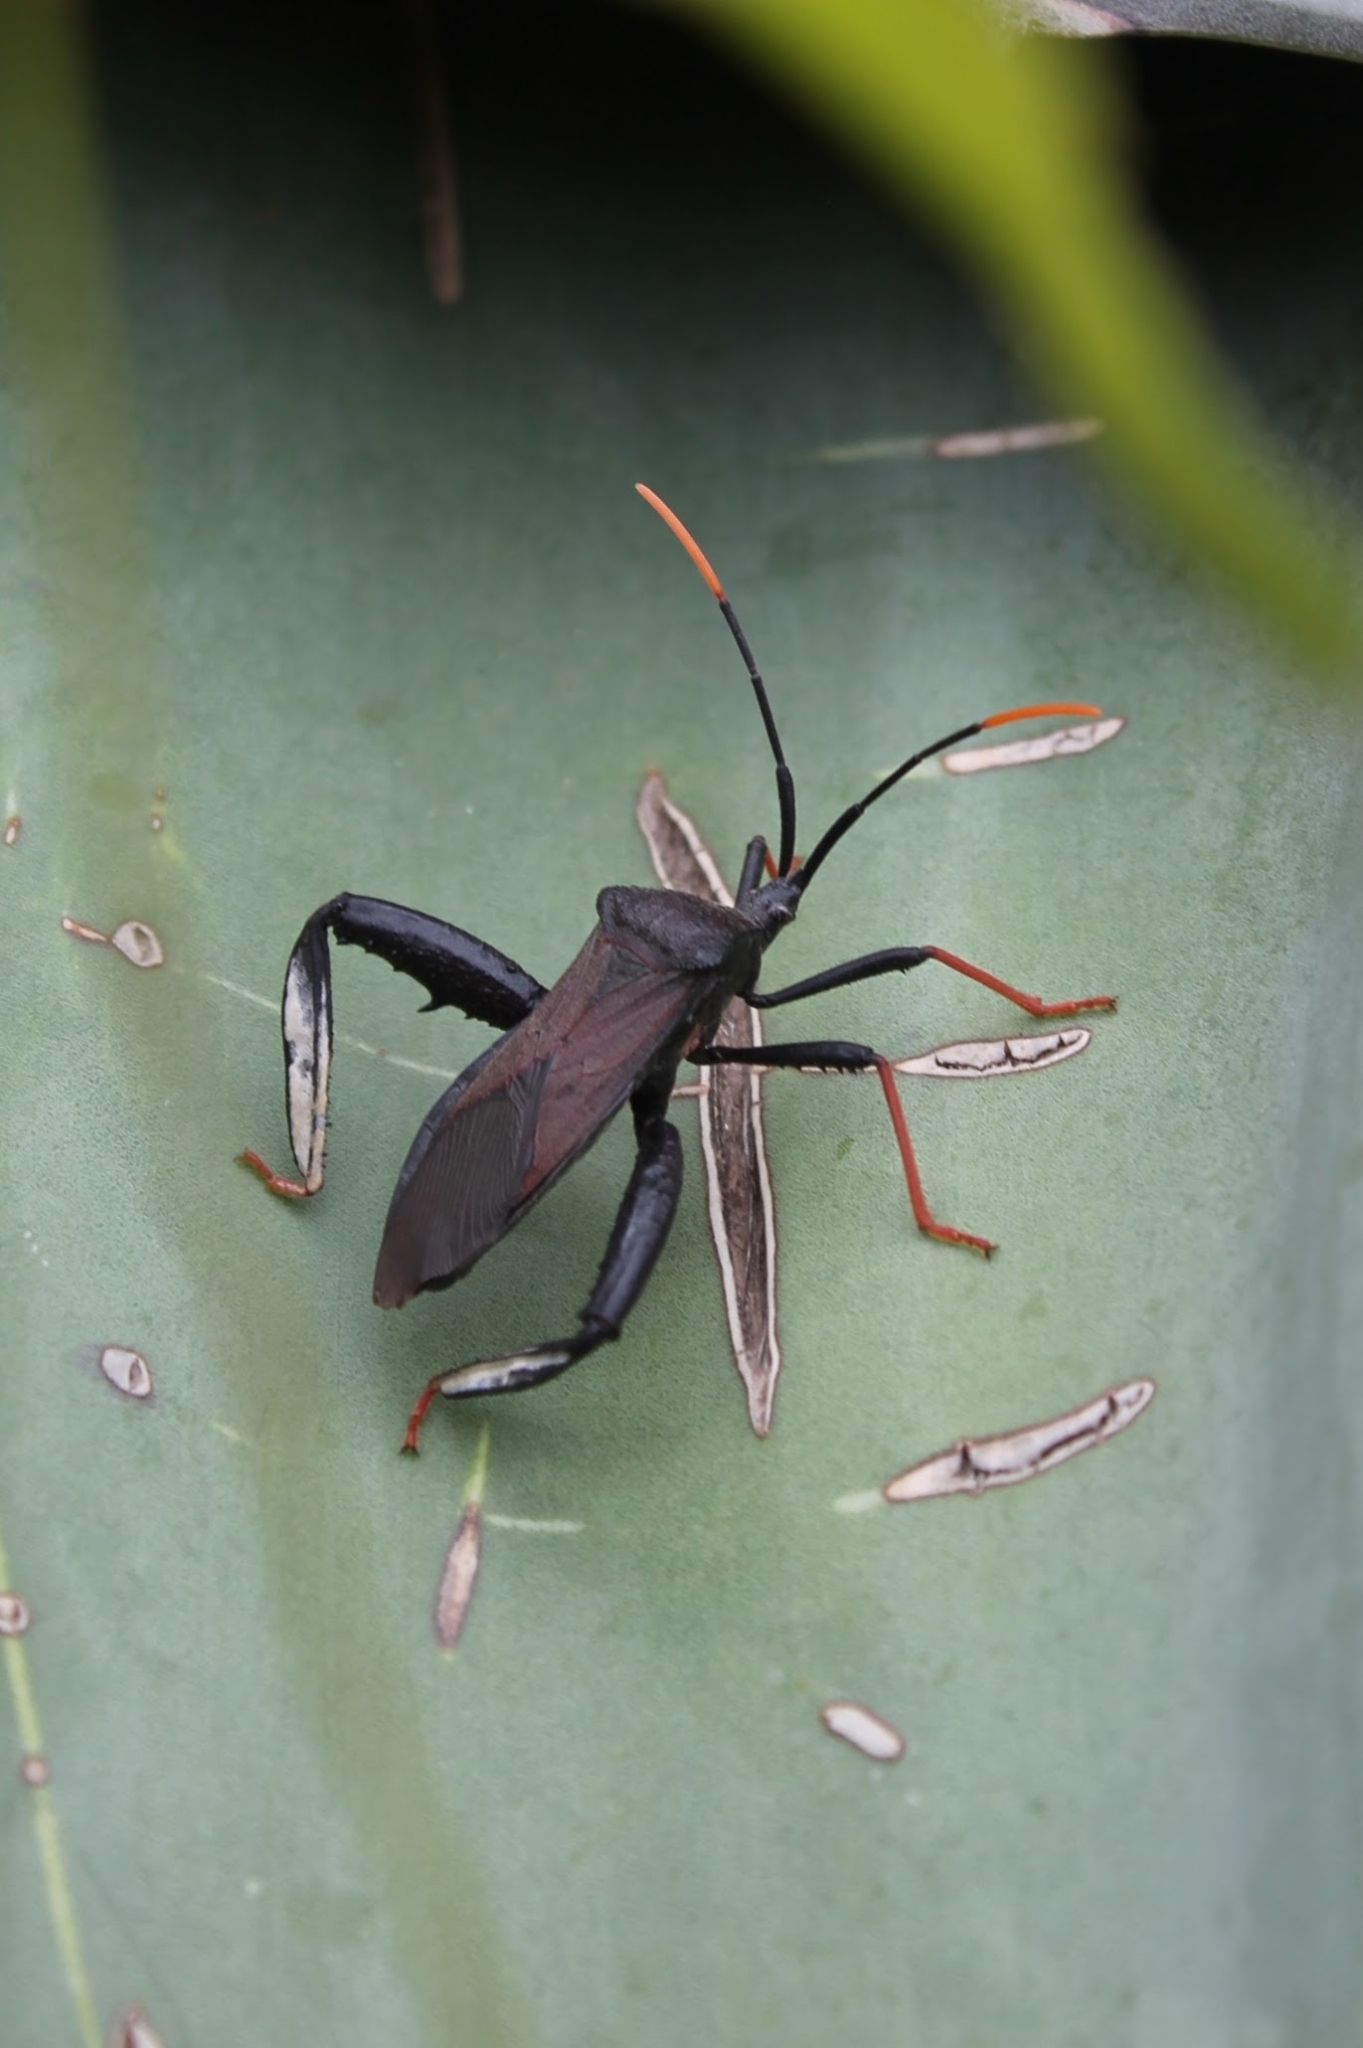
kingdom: Animalia
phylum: Arthropoda
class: Insecta
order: Hemiptera
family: Coreidae
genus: Acanthocephala
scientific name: Acanthocephala thomasi
